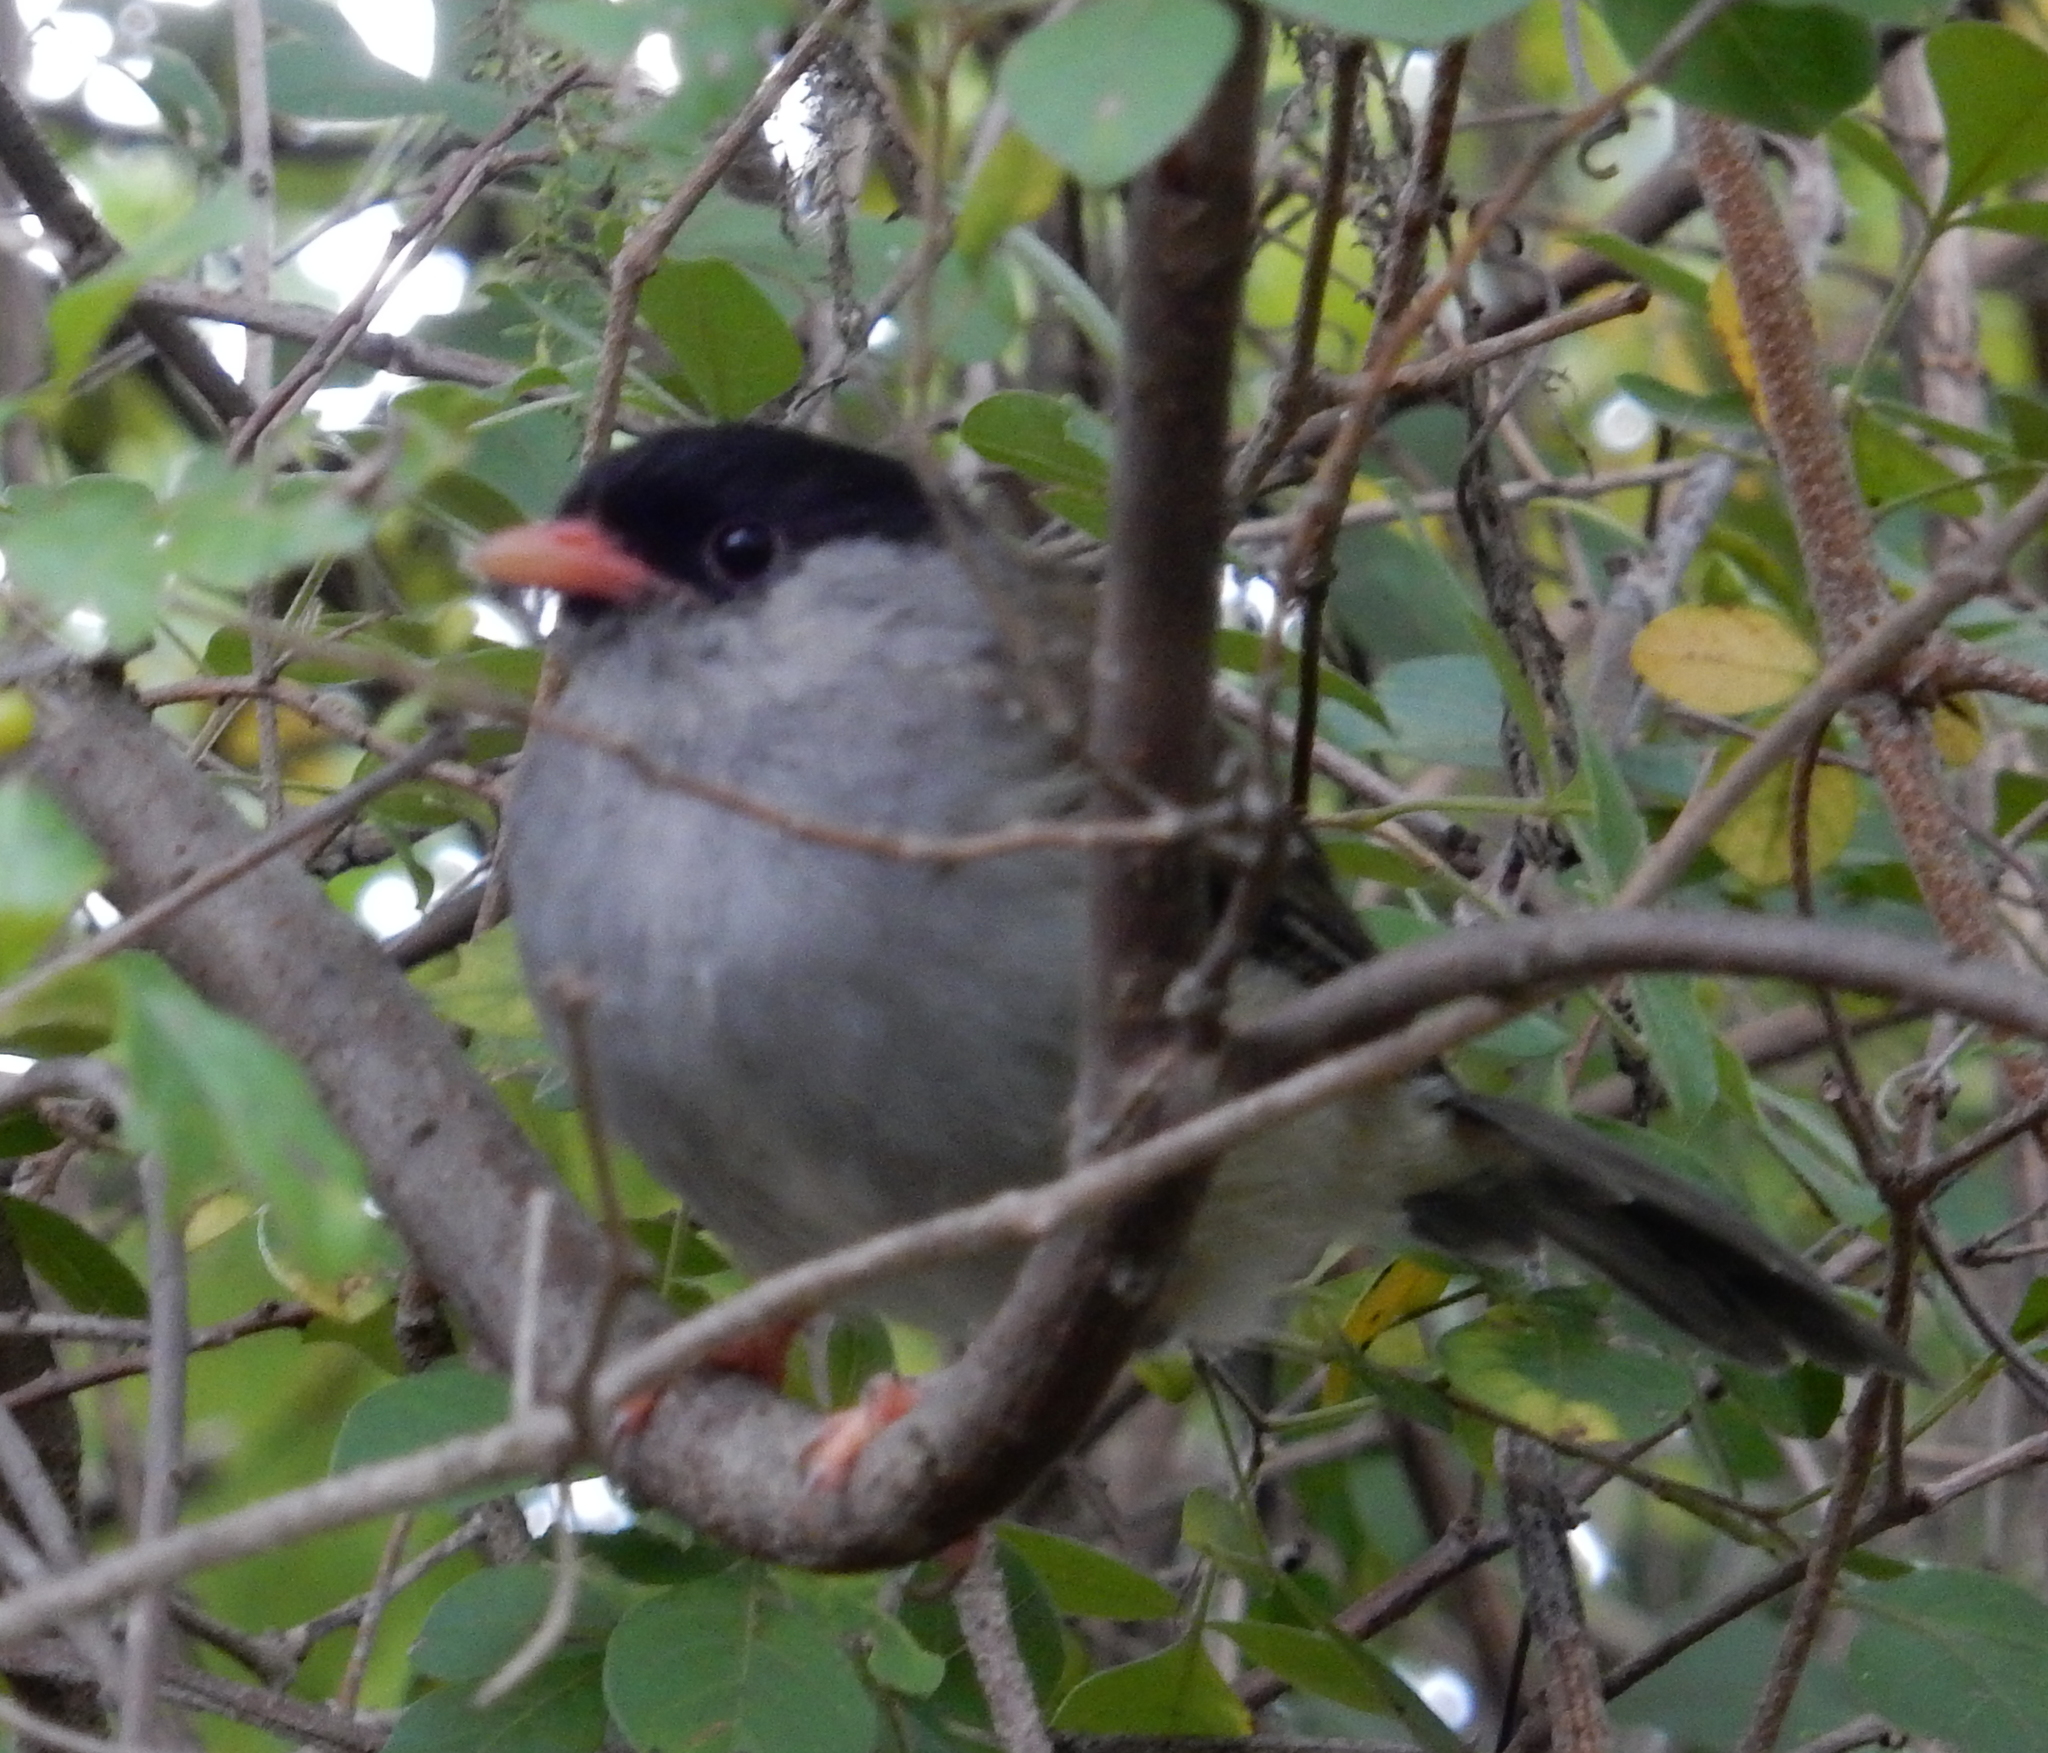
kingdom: Animalia
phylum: Chordata
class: Aves
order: Passeriformes
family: Sylviidae
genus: Lioptilus
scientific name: Lioptilus nigricapillus
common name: Bush blackcap
